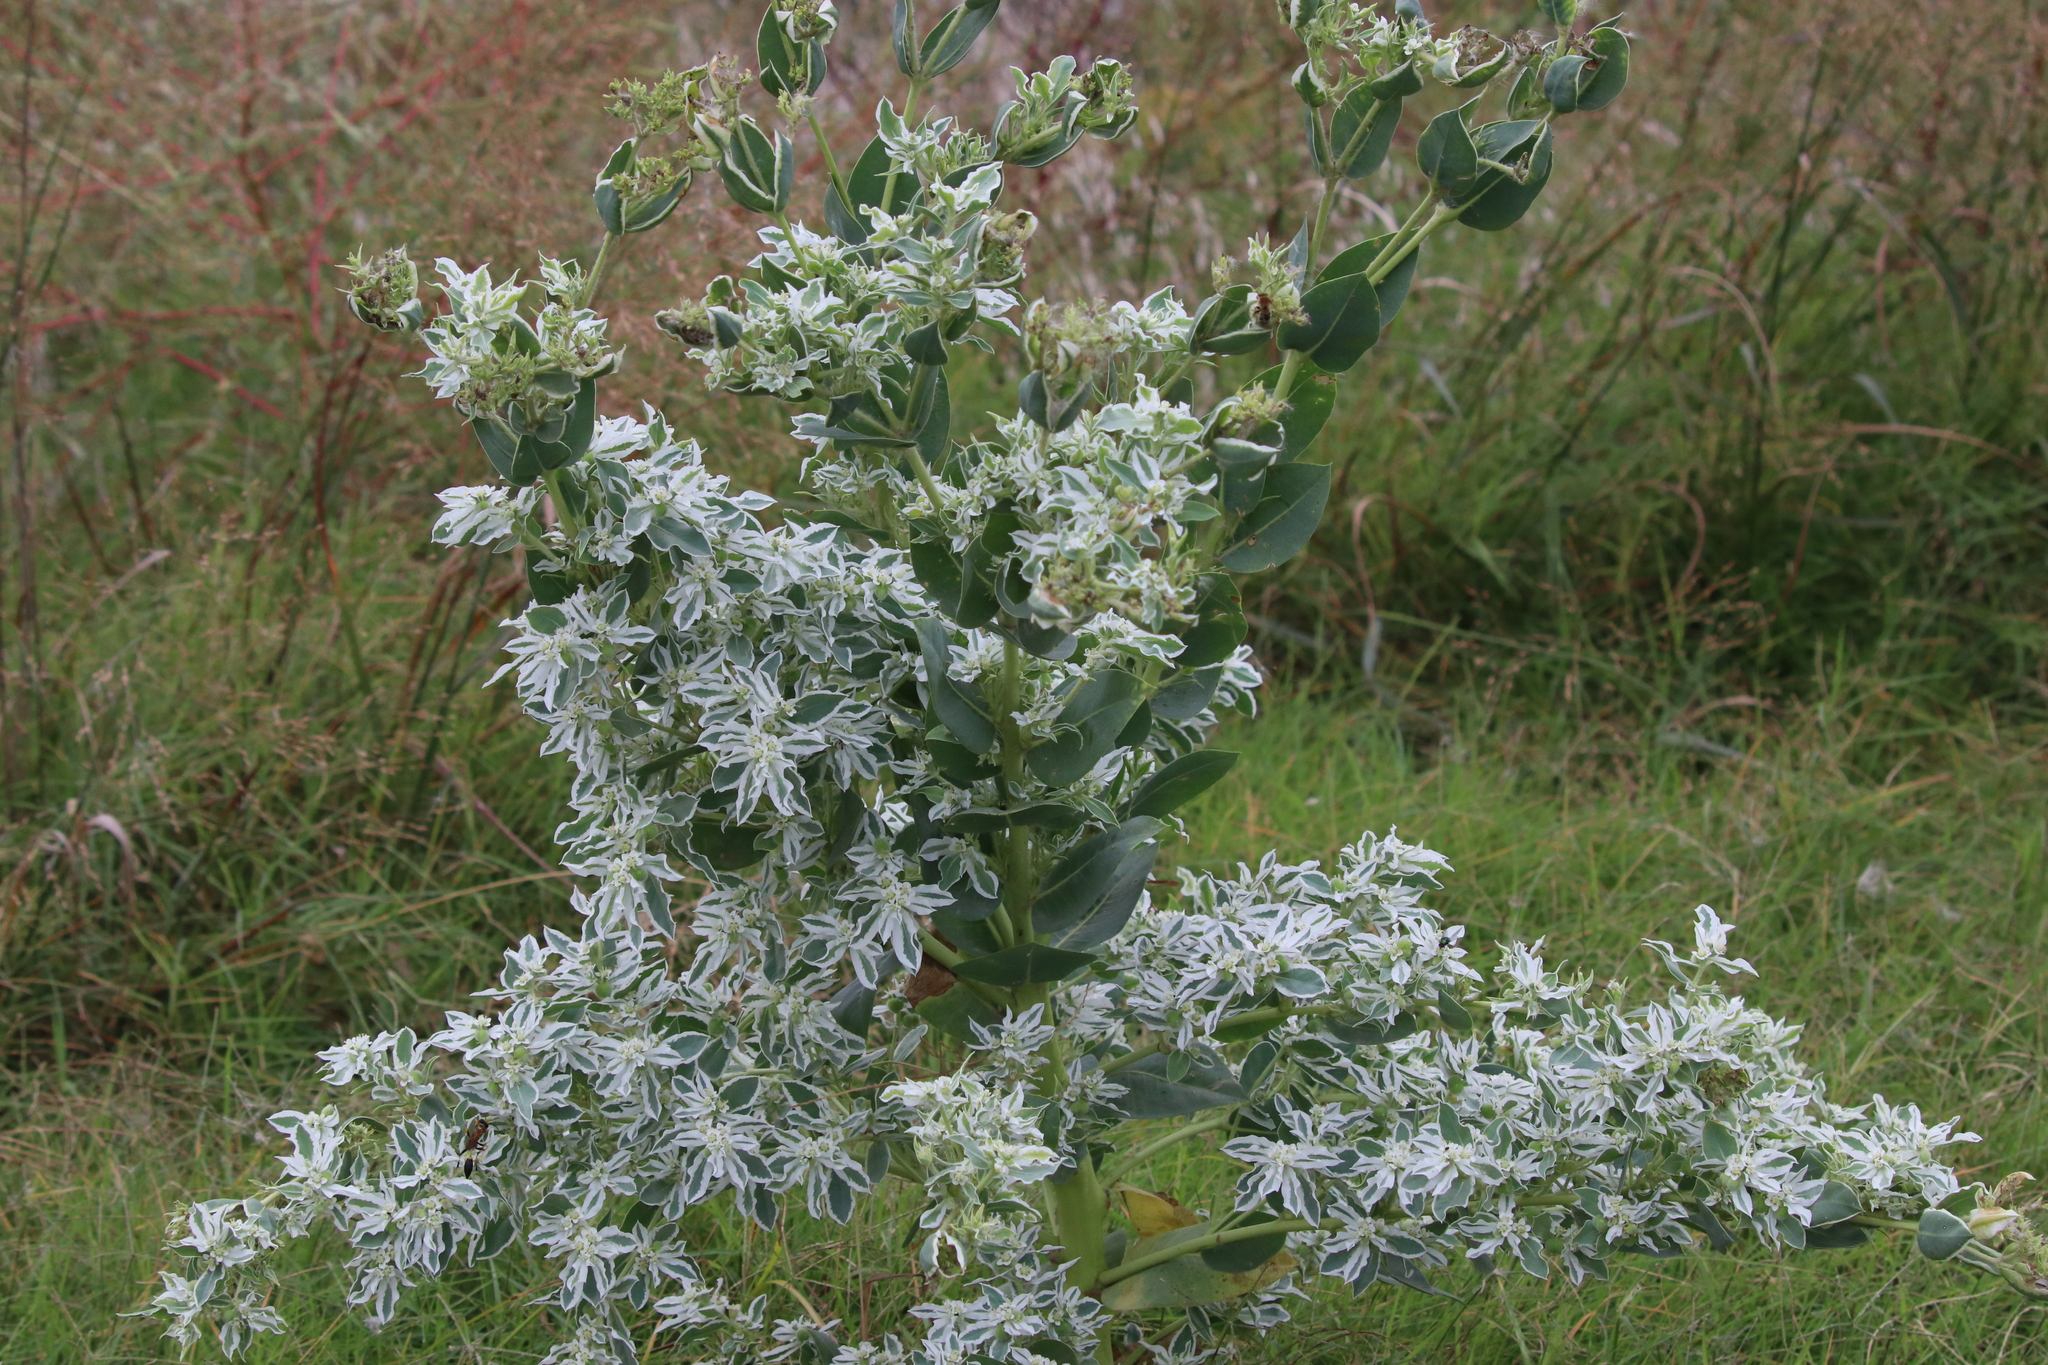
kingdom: Plantae
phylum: Tracheophyta
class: Magnoliopsida
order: Malpighiales
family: Euphorbiaceae
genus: Euphorbia
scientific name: Euphorbia marginata
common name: Ghostweed
